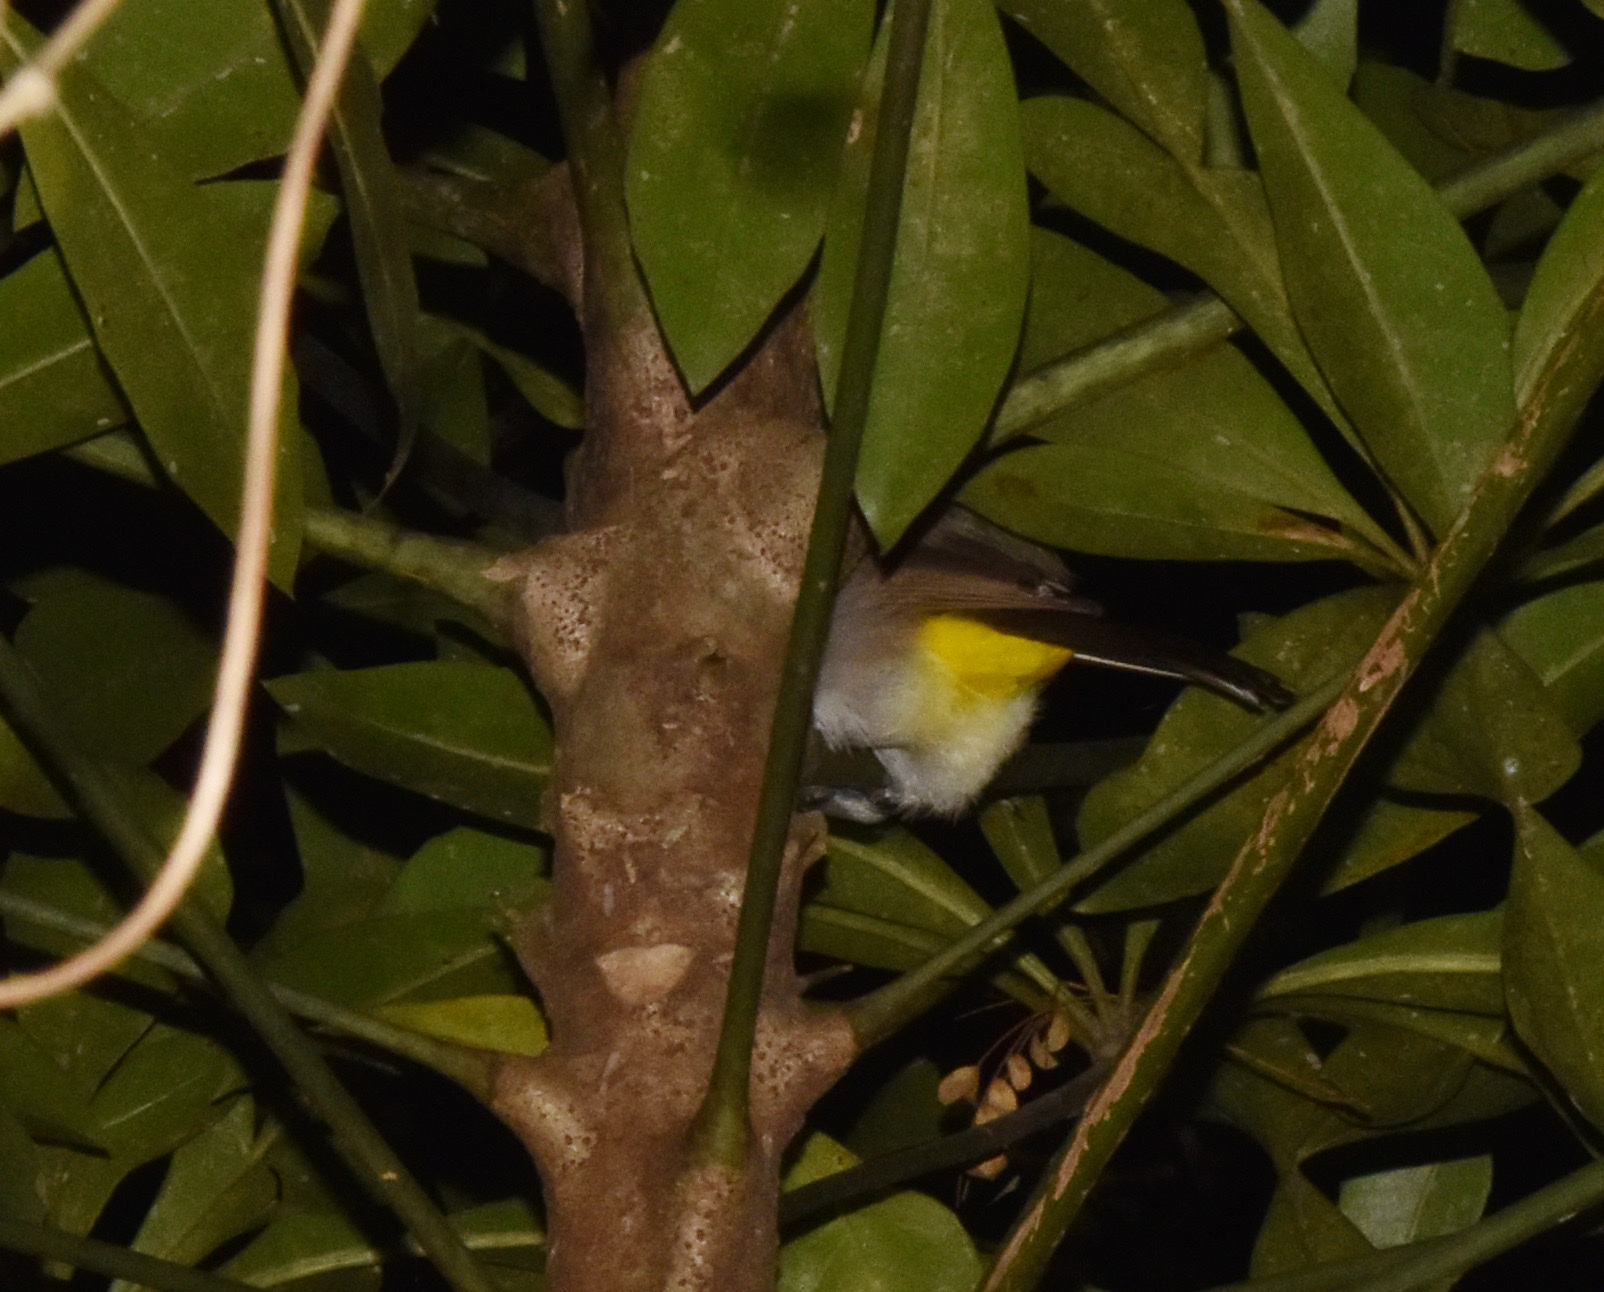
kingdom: Animalia
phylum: Chordata
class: Aves
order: Passeriformes
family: Pycnonotidae
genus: Pycnonotus
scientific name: Pycnonotus barbatus
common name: Common bulbul
